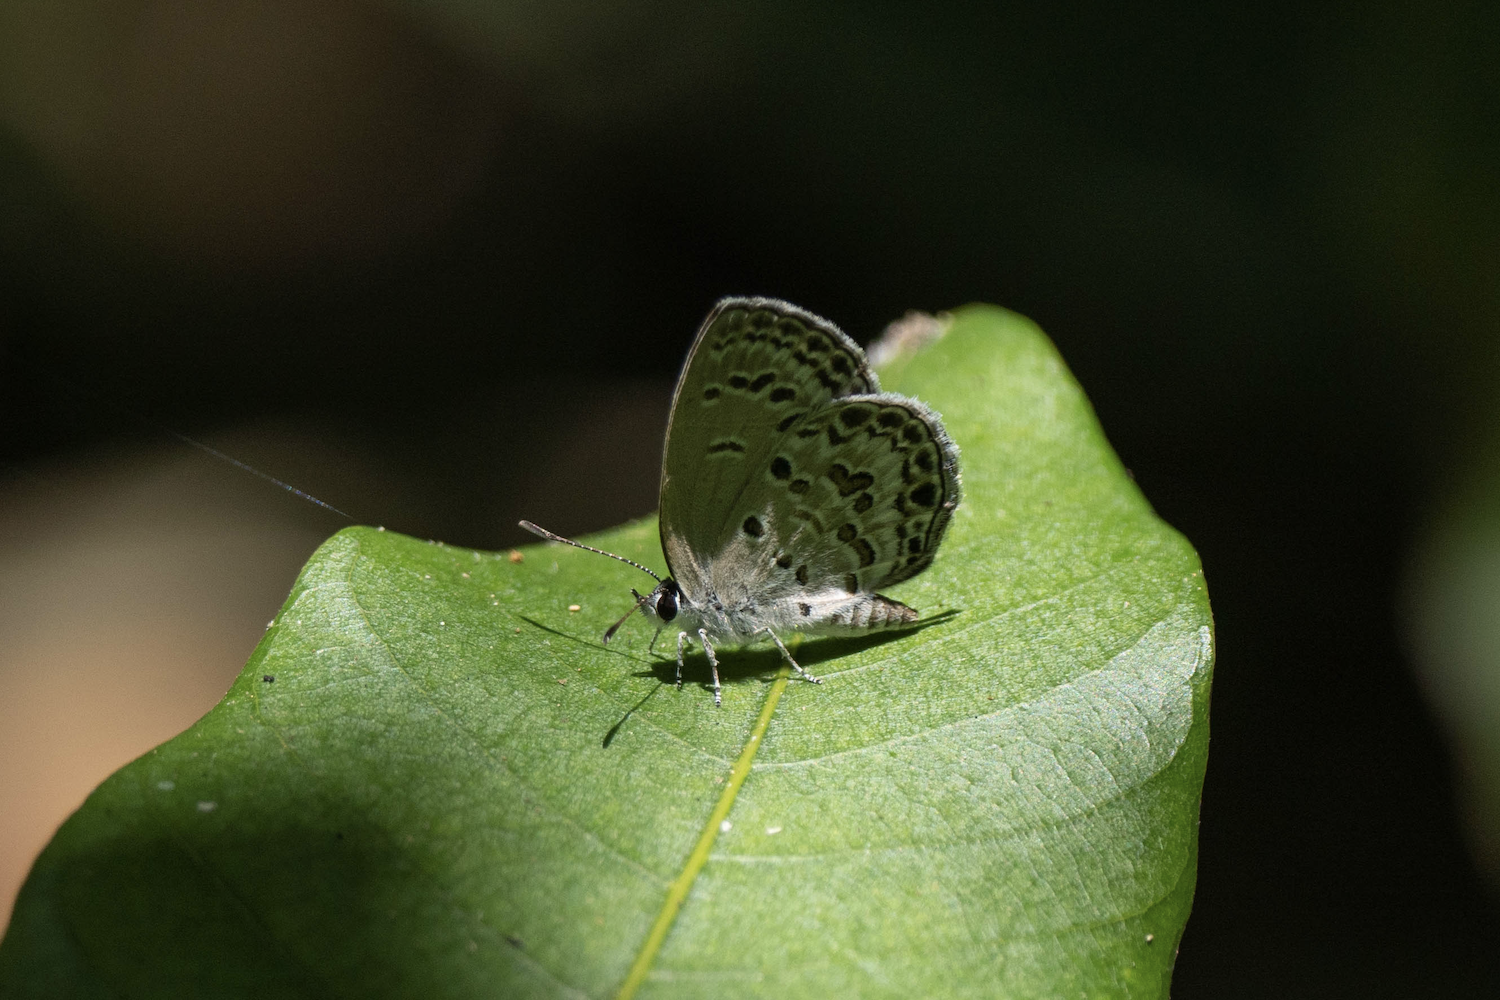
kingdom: Animalia
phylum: Arthropoda
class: Insecta
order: Lepidoptera
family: Lycaenidae
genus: Chilades
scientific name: Chilades laius
